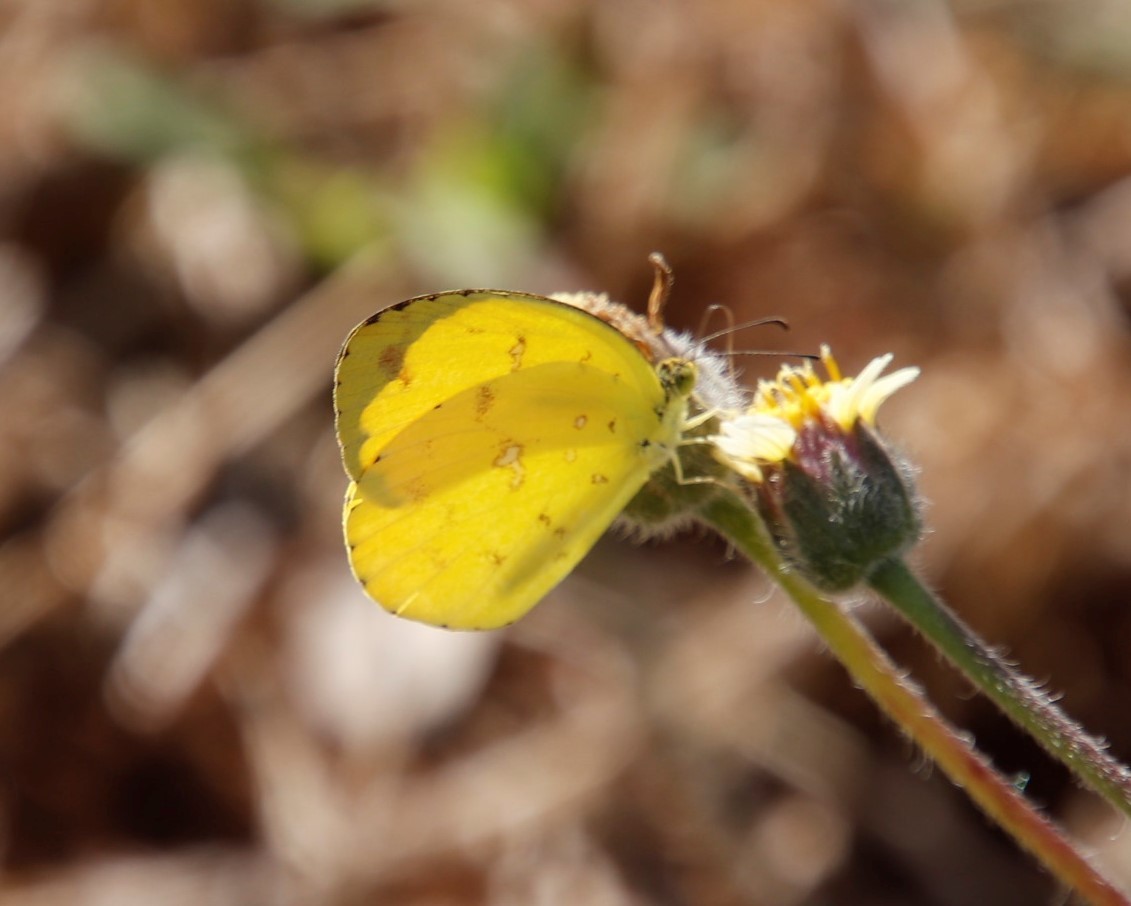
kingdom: Animalia
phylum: Arthropoda
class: Insecta
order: Lepidoptera
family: Pieridae
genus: Eurema
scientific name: Eurema floricola
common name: Malagasy grass yellow
